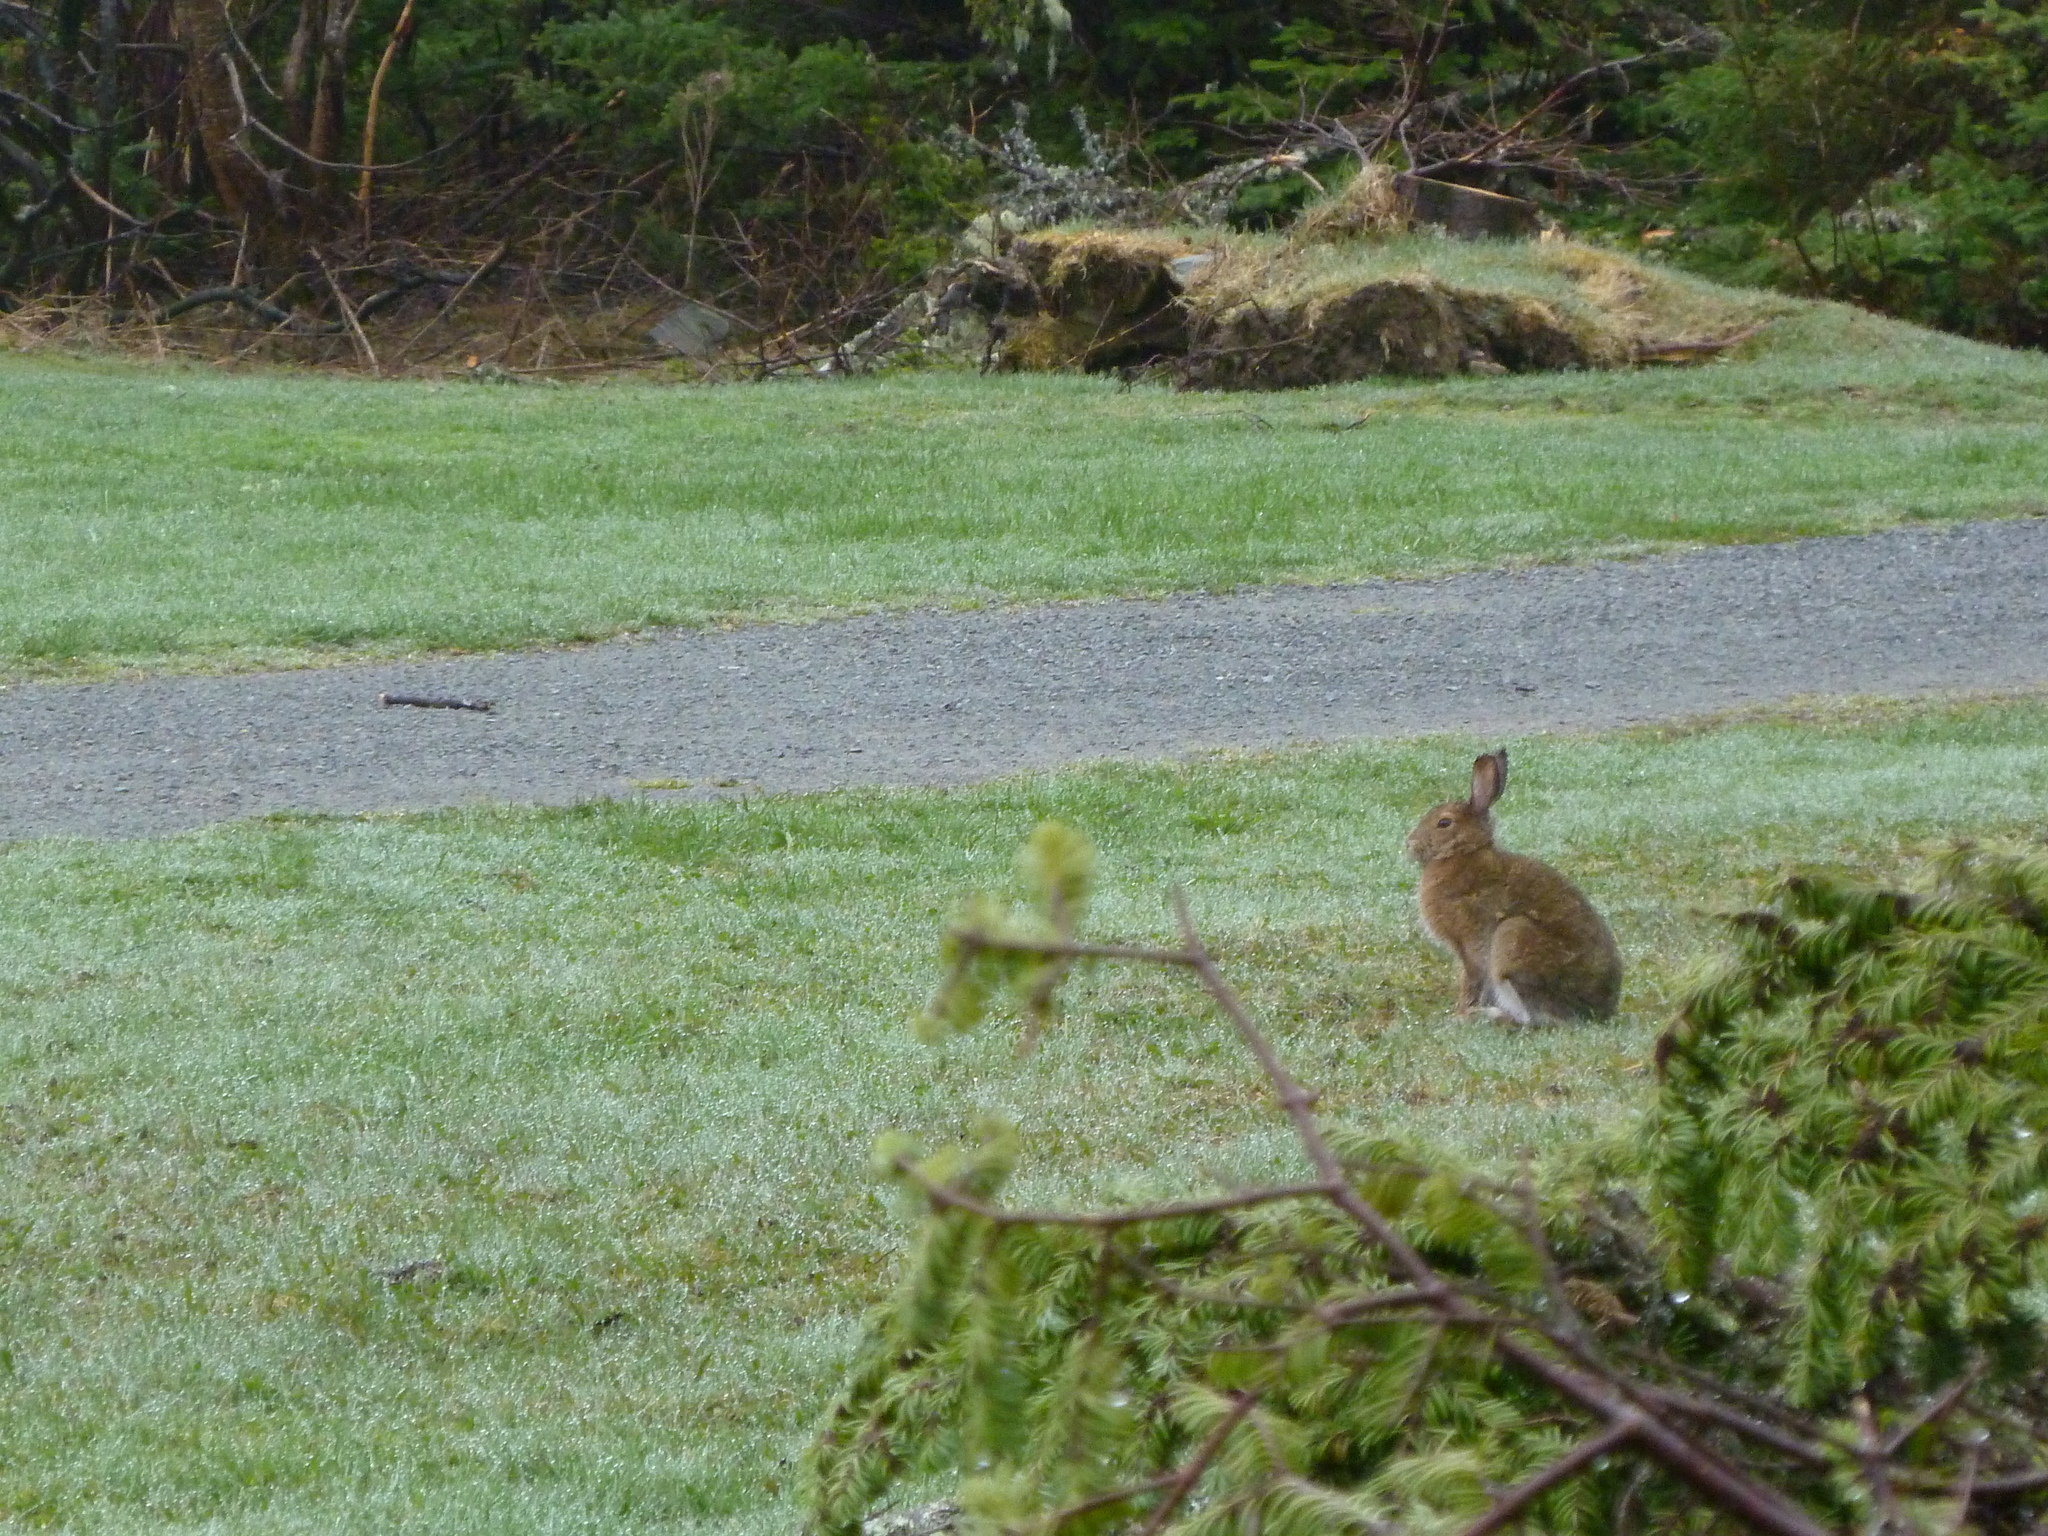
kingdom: Animalia
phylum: Chordata
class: Mammalia
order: Lagomorpha
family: Leporidae
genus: Lepus
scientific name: Lepus americanus
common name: Snowshoe hare
